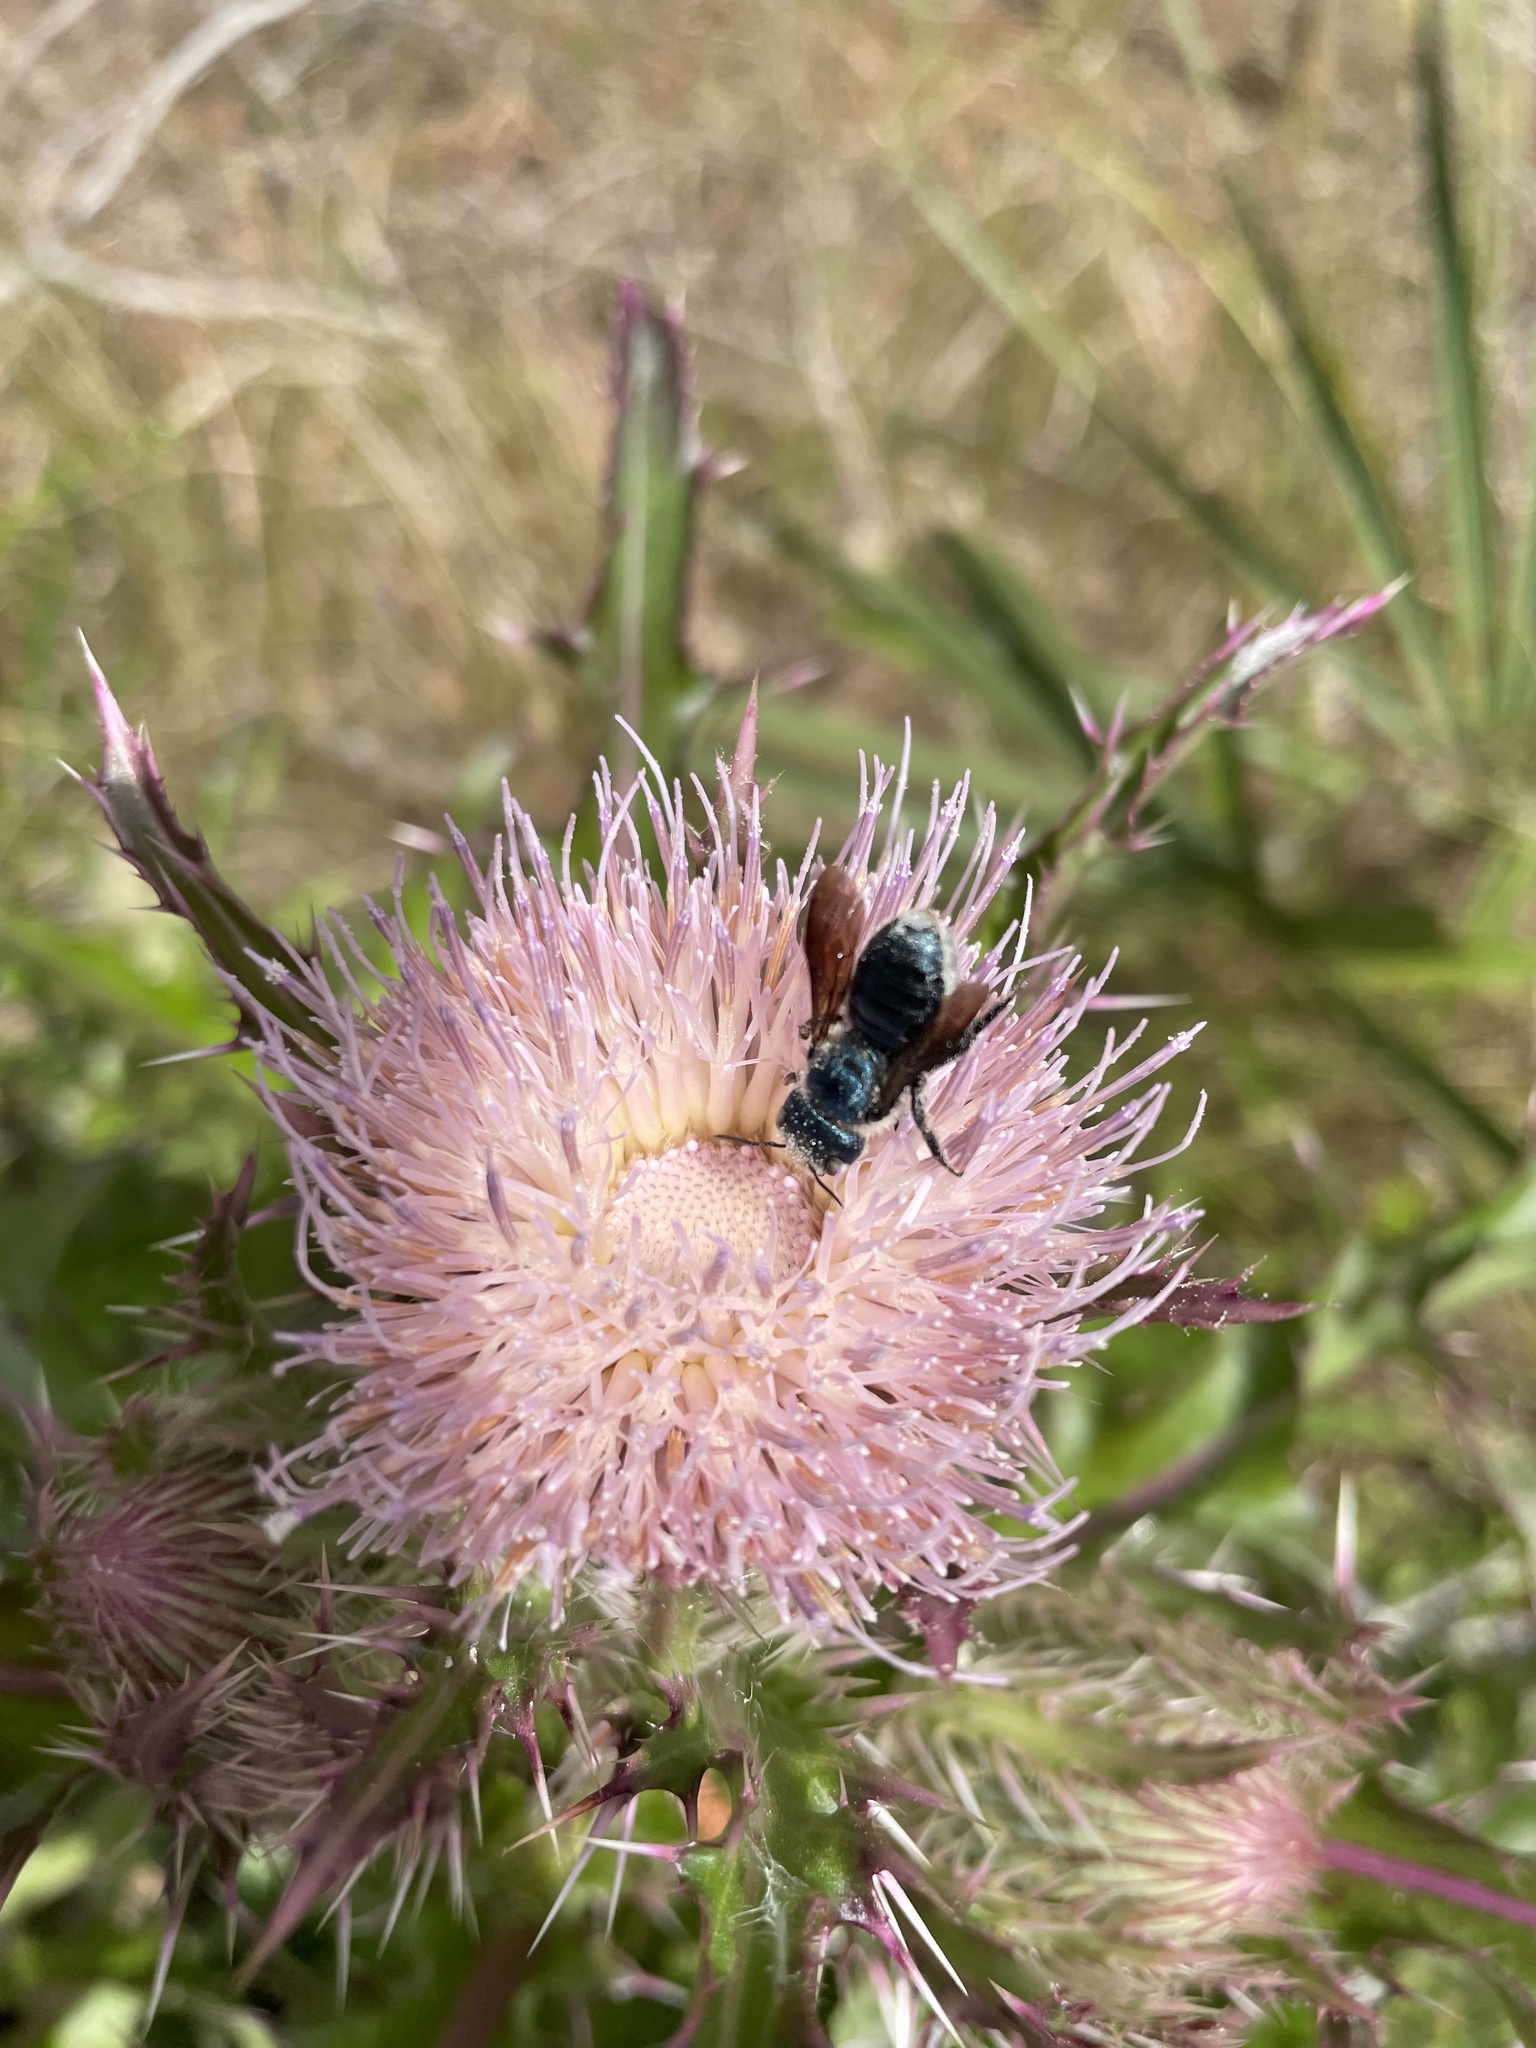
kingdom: Animalia
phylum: Arthropoda
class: Insecta
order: Hymenoptera
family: Megachilidae
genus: Osmia
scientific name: Osmia chalybea
